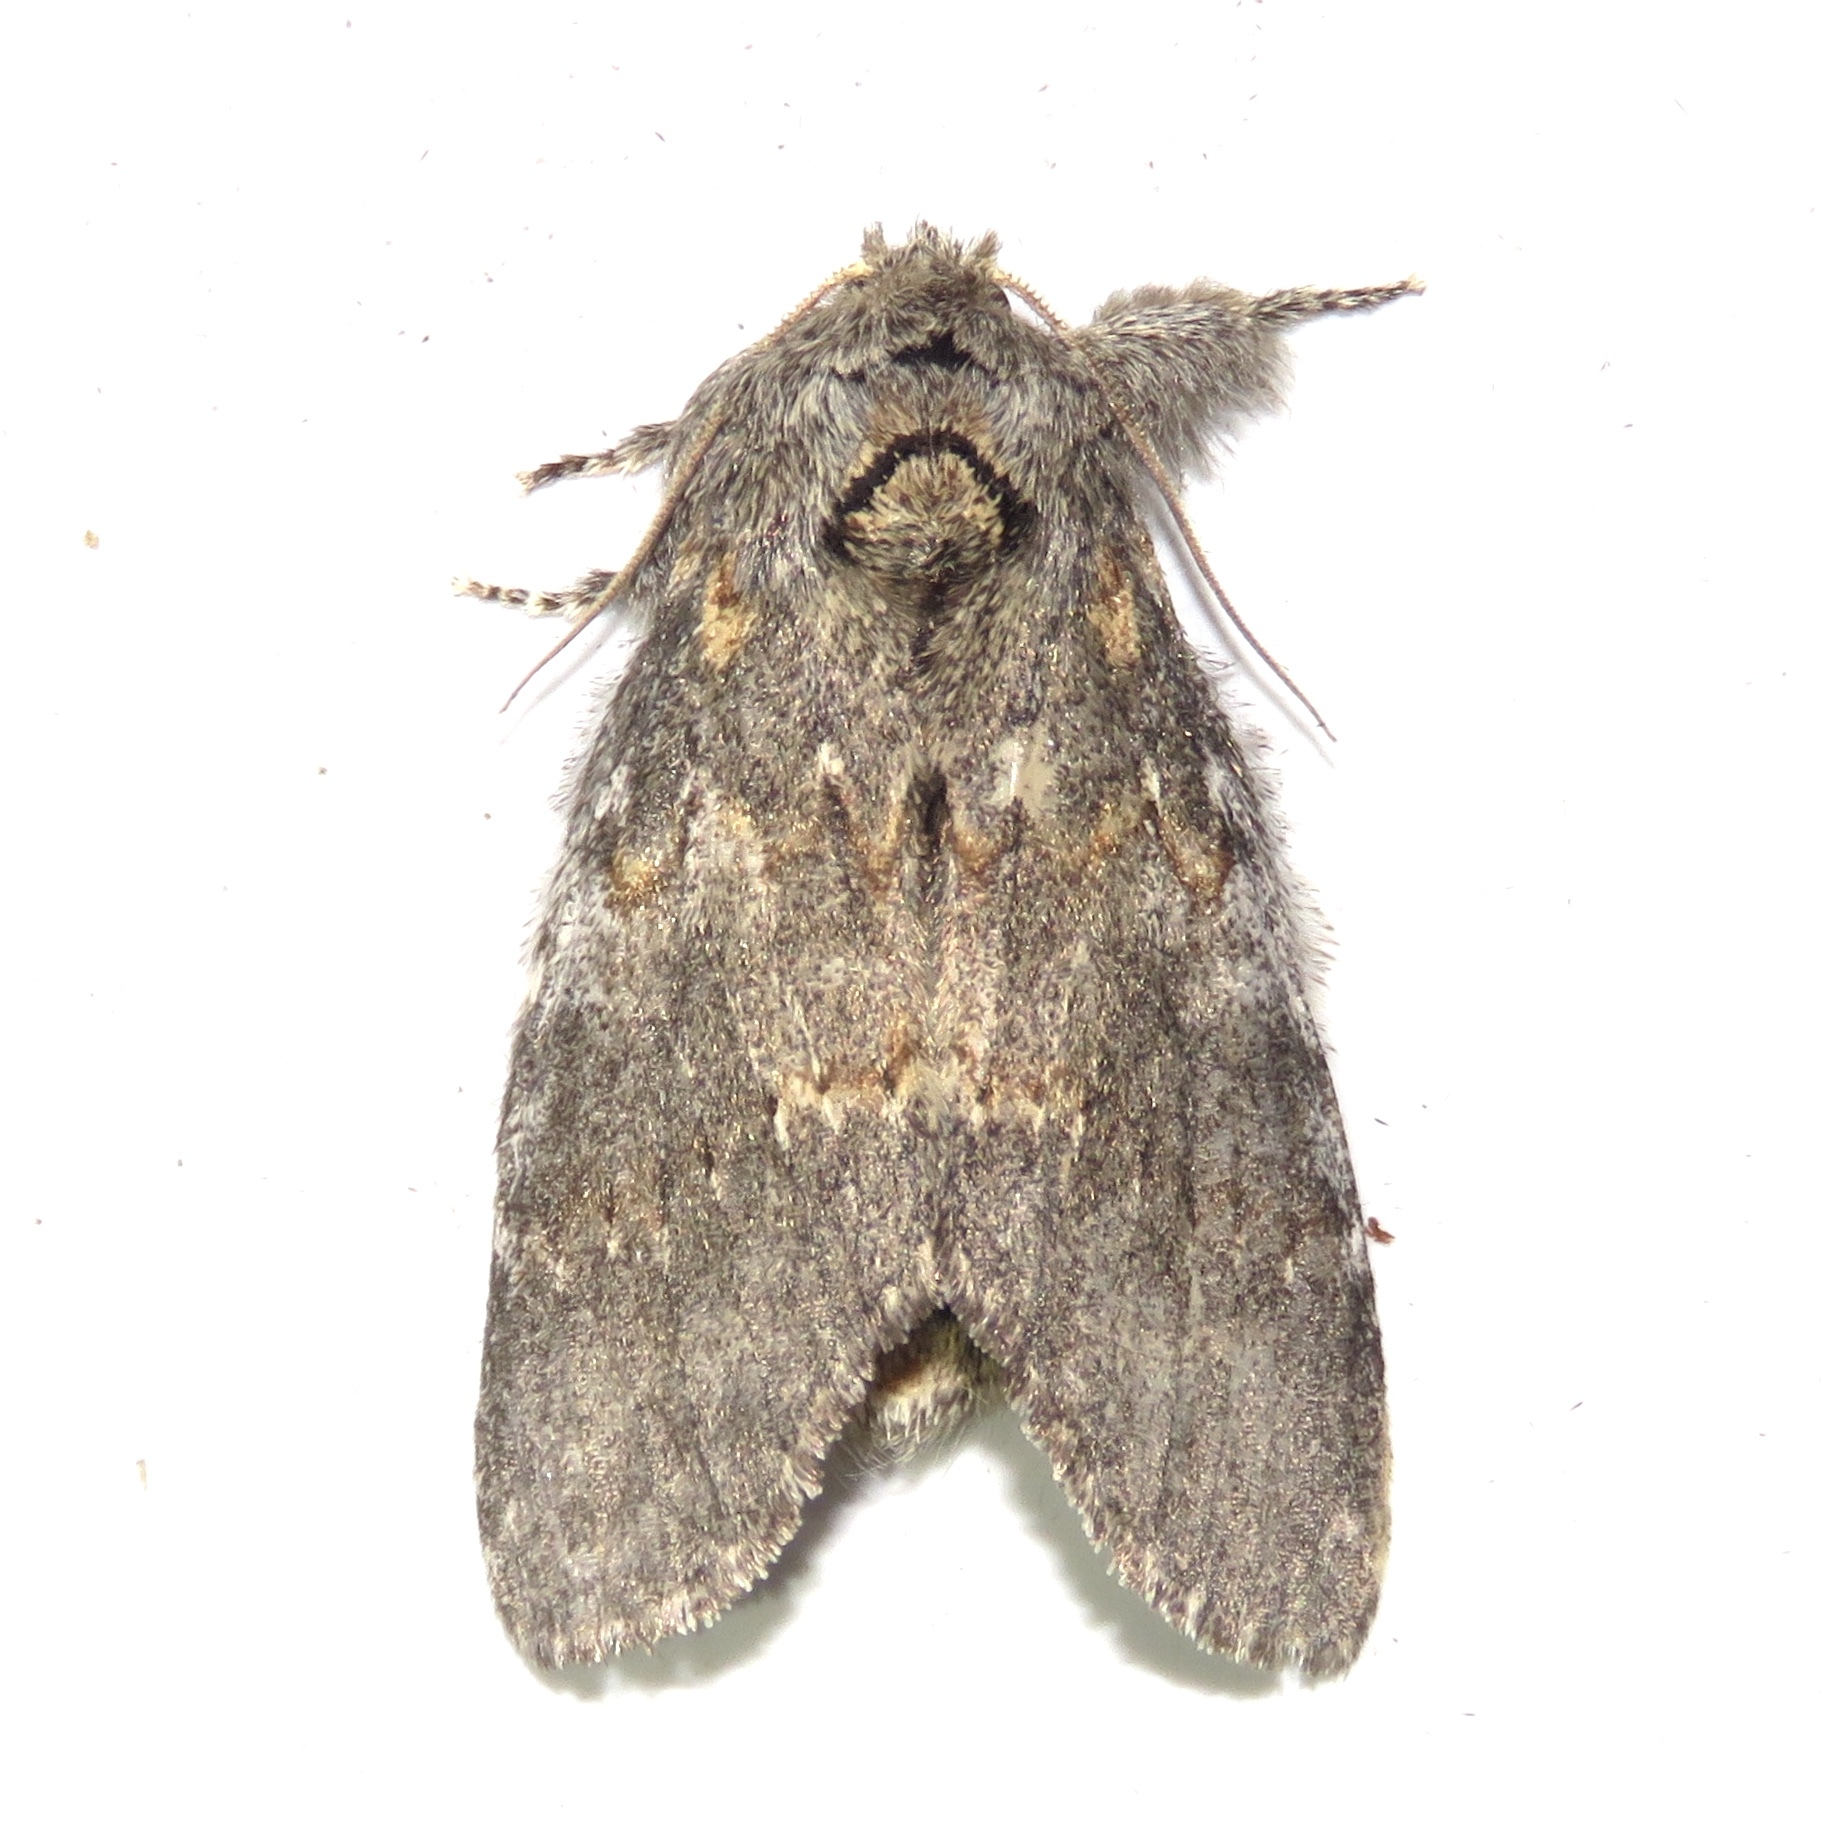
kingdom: Animalia
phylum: Arthropoda
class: Insecta
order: Lepidoptera
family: Notodontidae
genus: Peridea
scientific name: Peridea angulosa
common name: Angulose prominent
